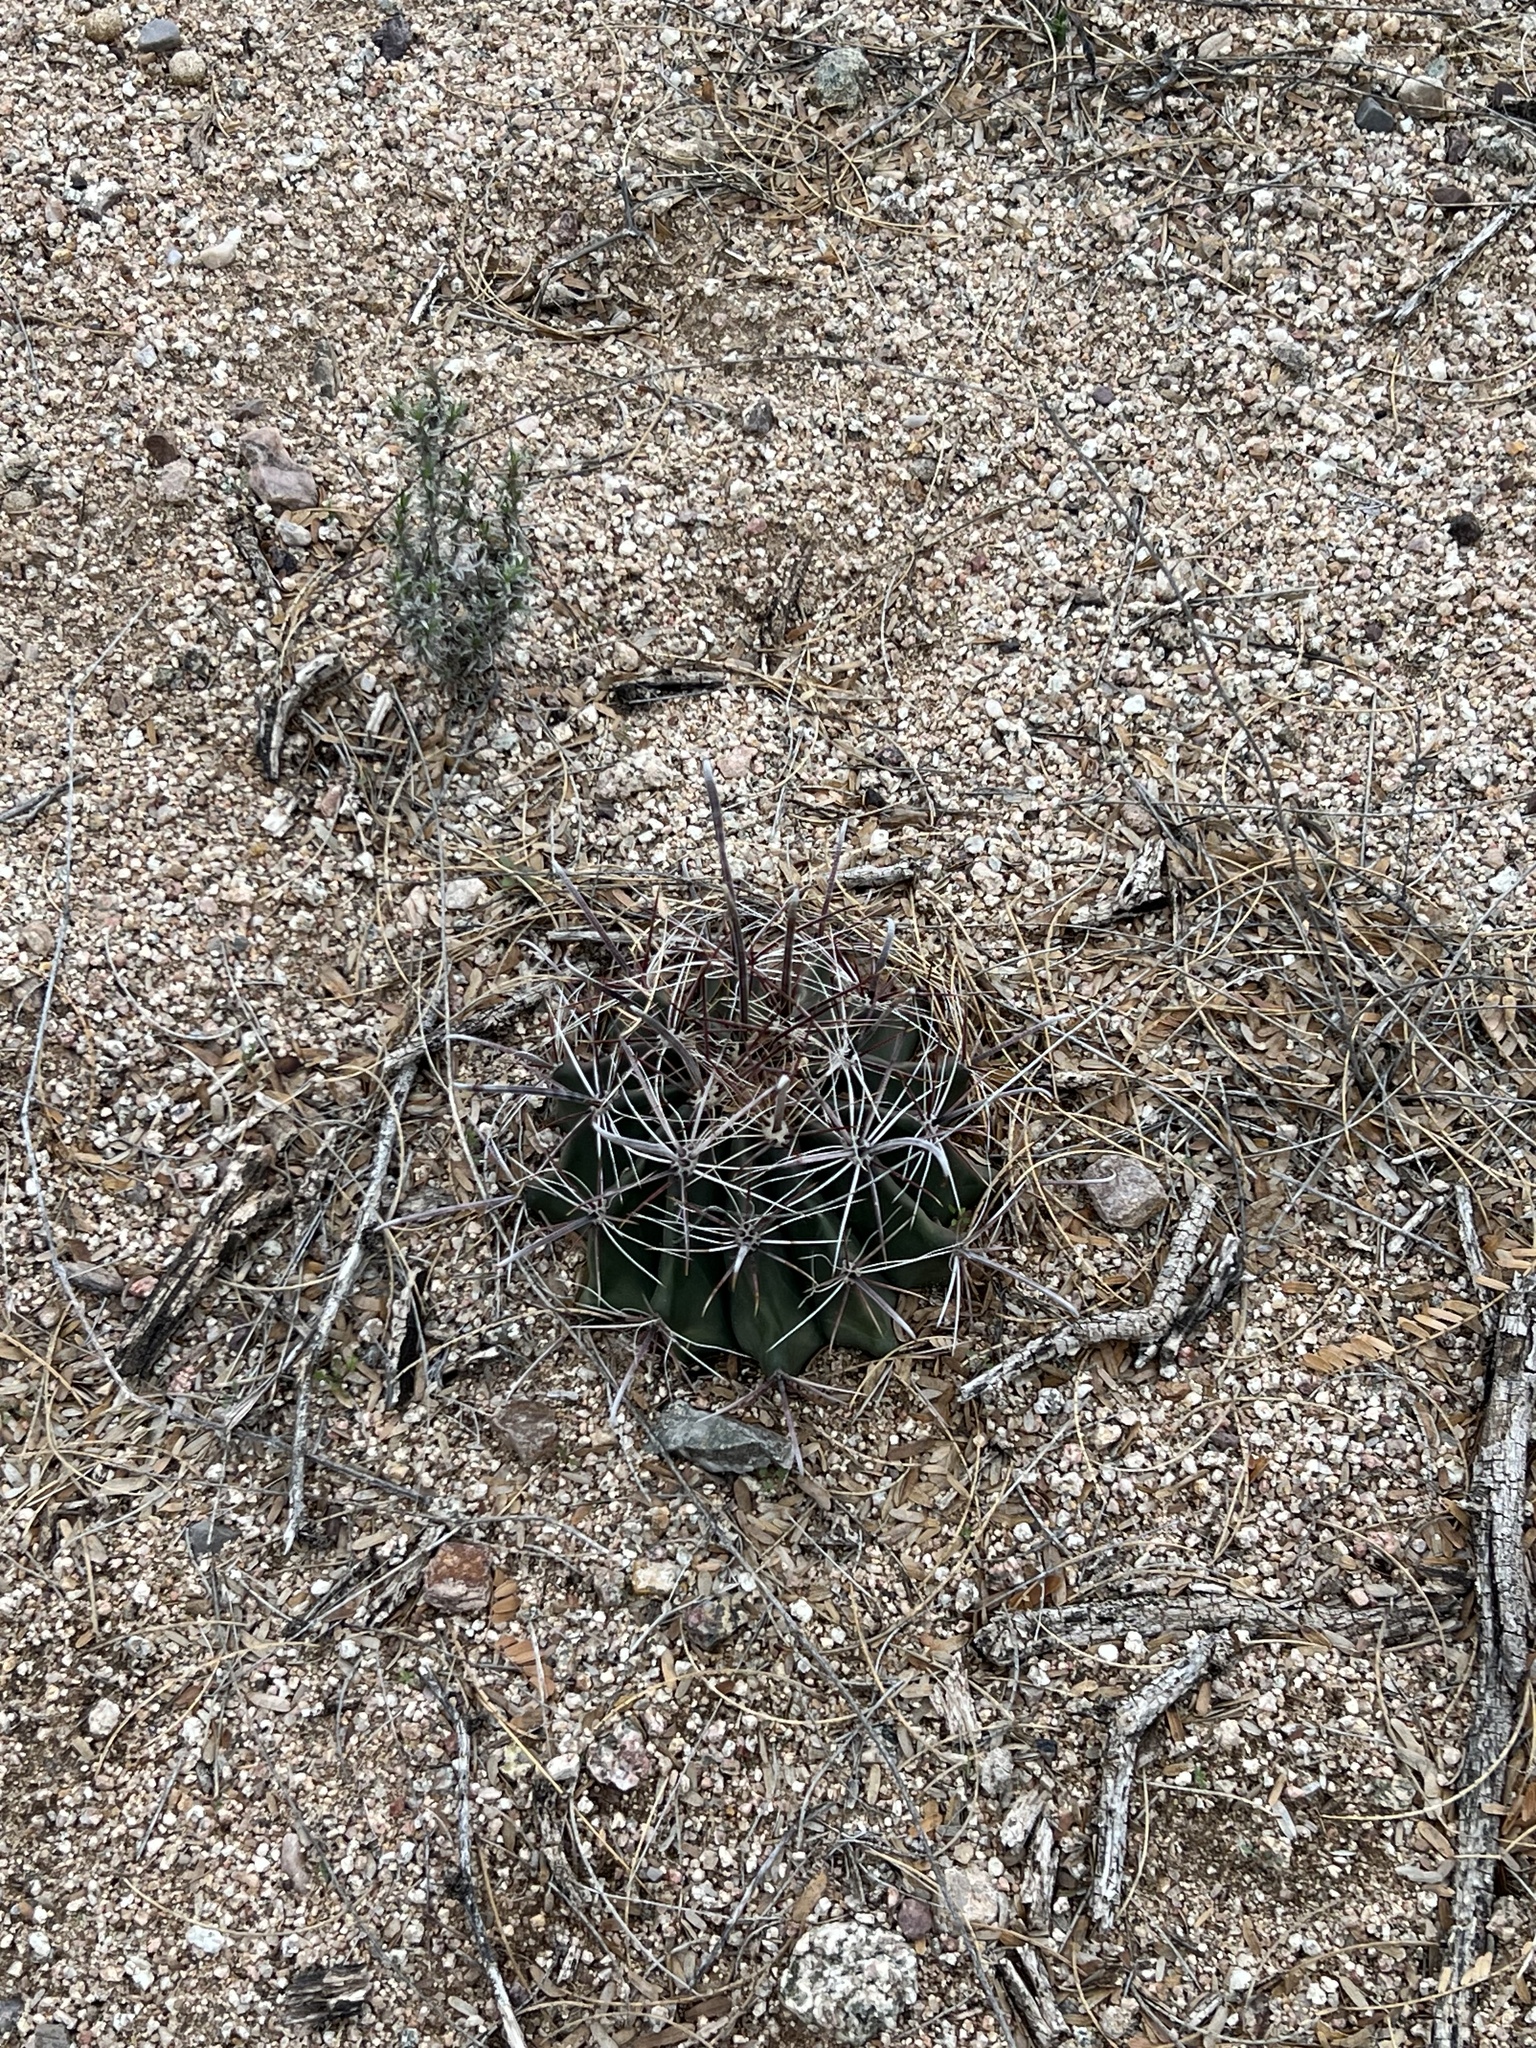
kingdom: Plantae
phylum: Tracheophyta
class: Magnoliopsida
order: Caryophyllales
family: Cactaceae
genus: Ferocactus
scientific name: Ferocactus wislizeni
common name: Candy barrel cactus
